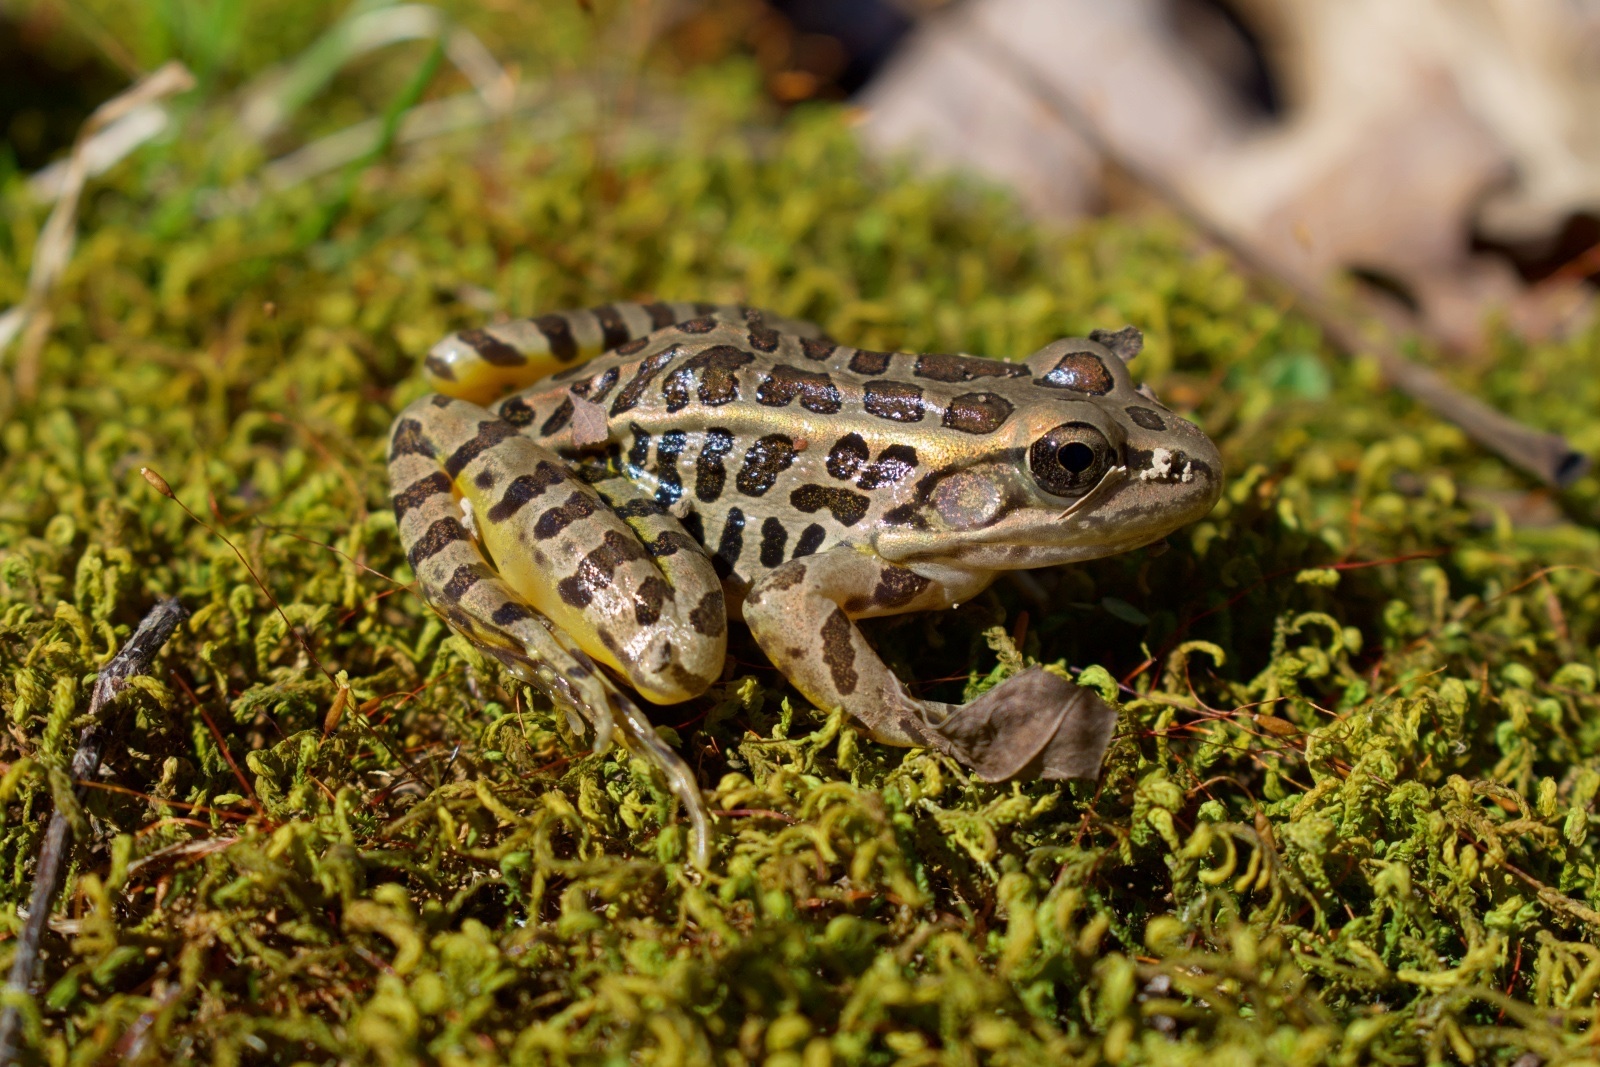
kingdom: Animalia
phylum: Chordata
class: Amphibia
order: Anura
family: Ranidae
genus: Lithobates
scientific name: Lithobates palustris
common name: Pickerel frog
